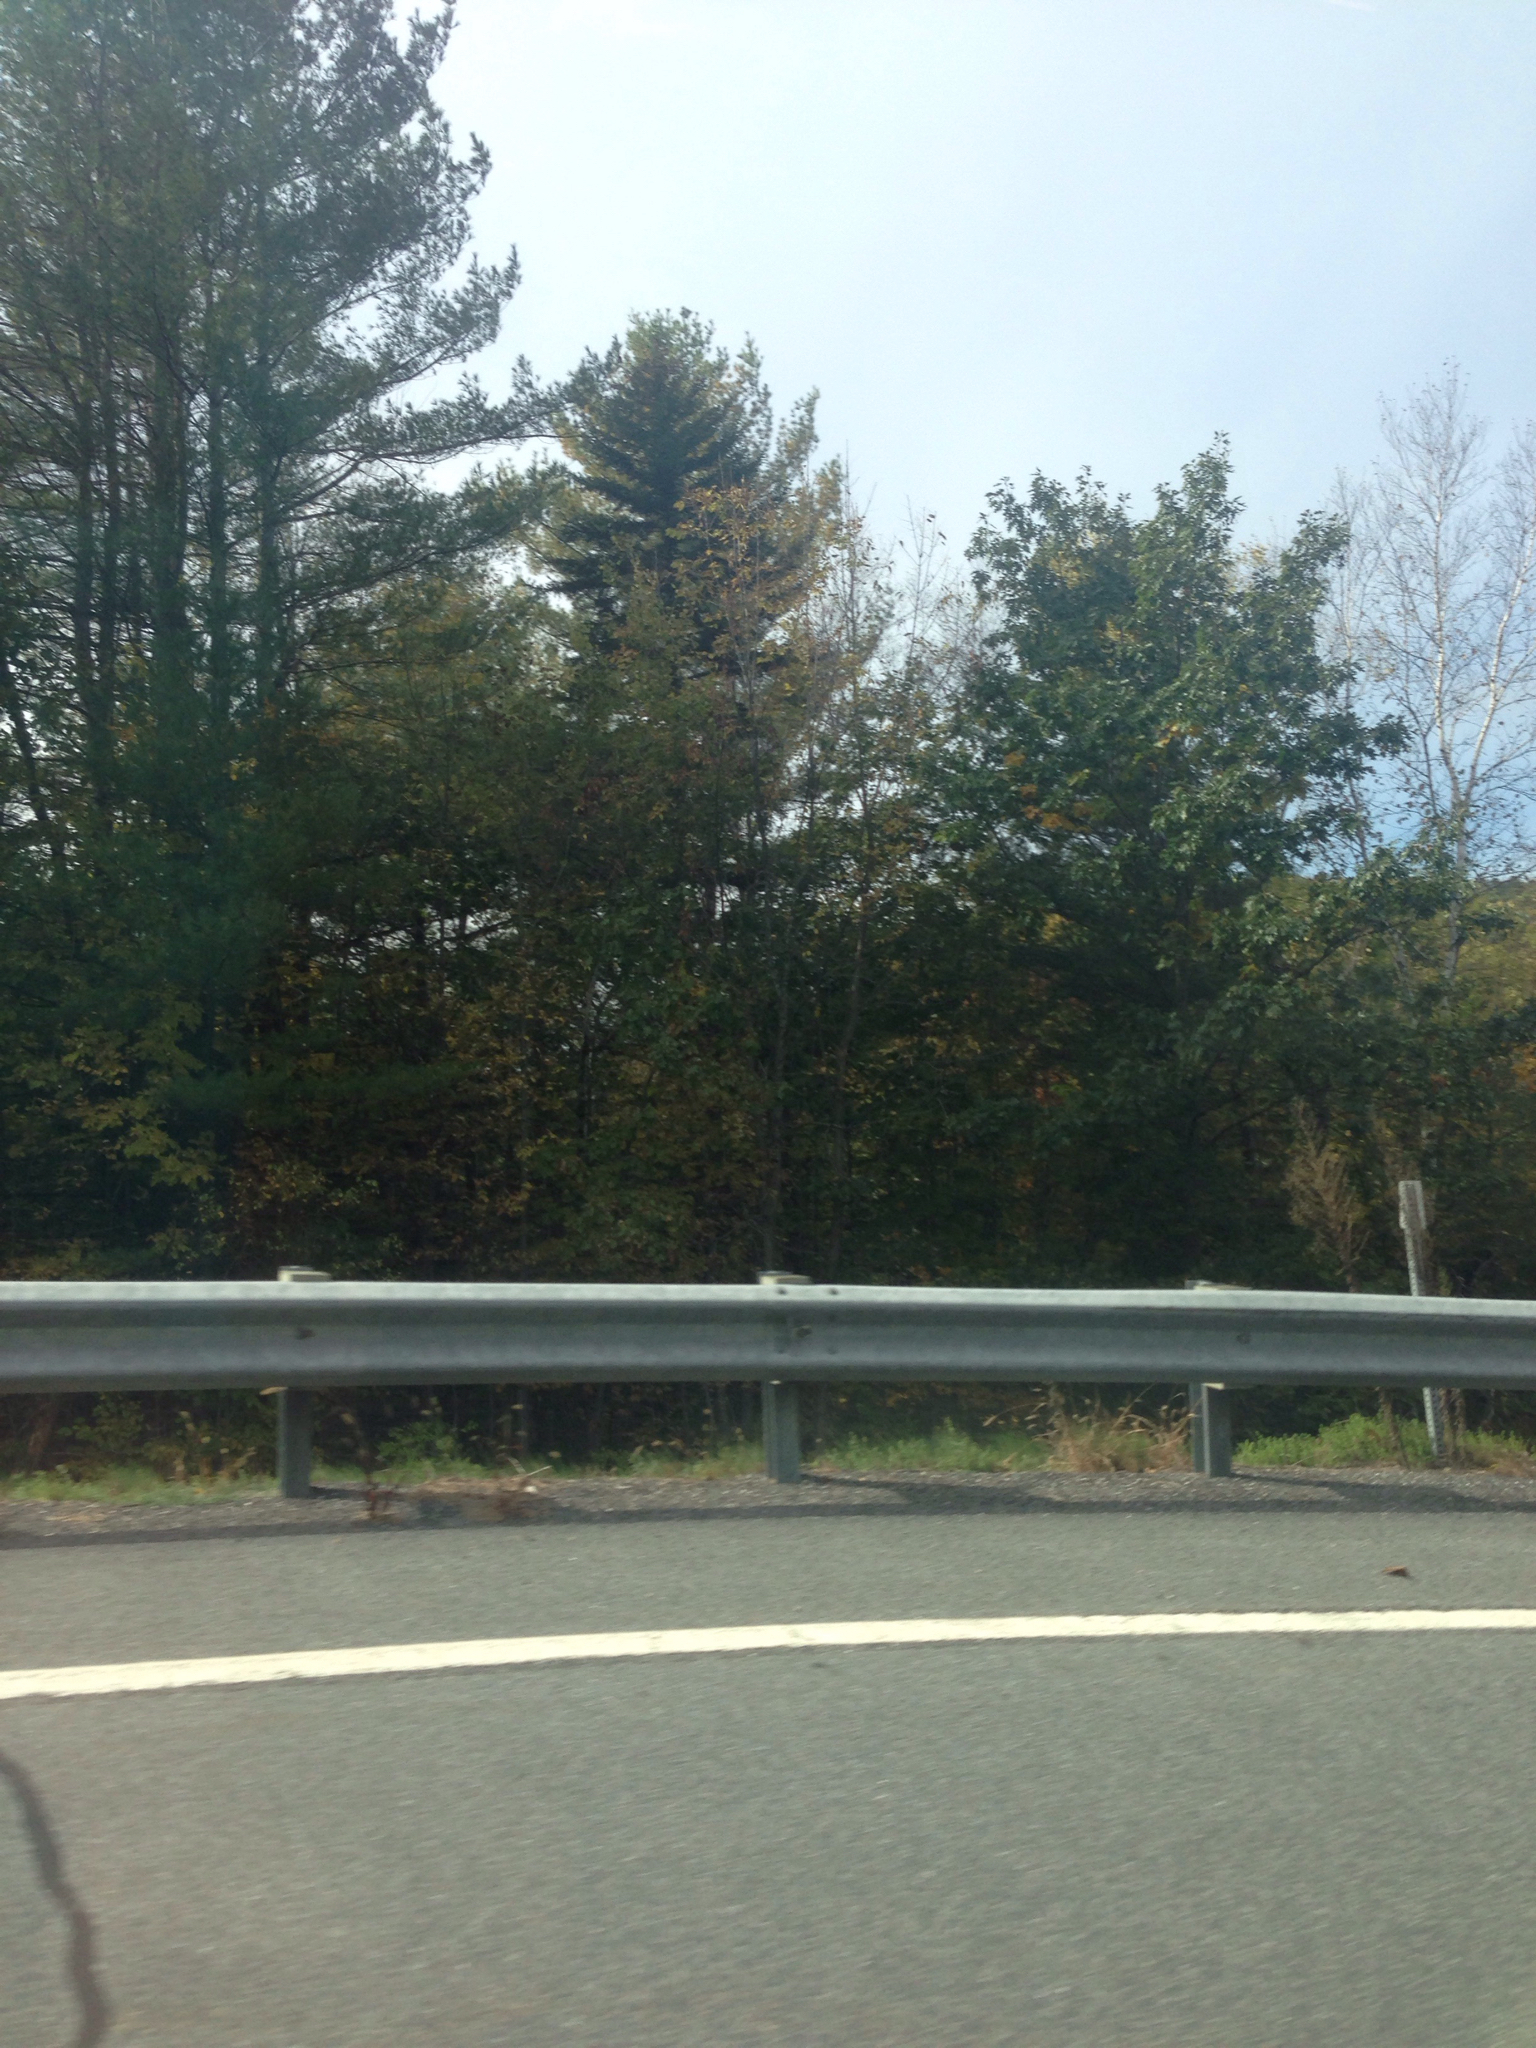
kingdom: Plantae
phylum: Tracheophyta
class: Pinopsida
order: Pinales
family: Pinaceae
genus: Pinus
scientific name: Pinus strobus
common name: Weymouth pine
